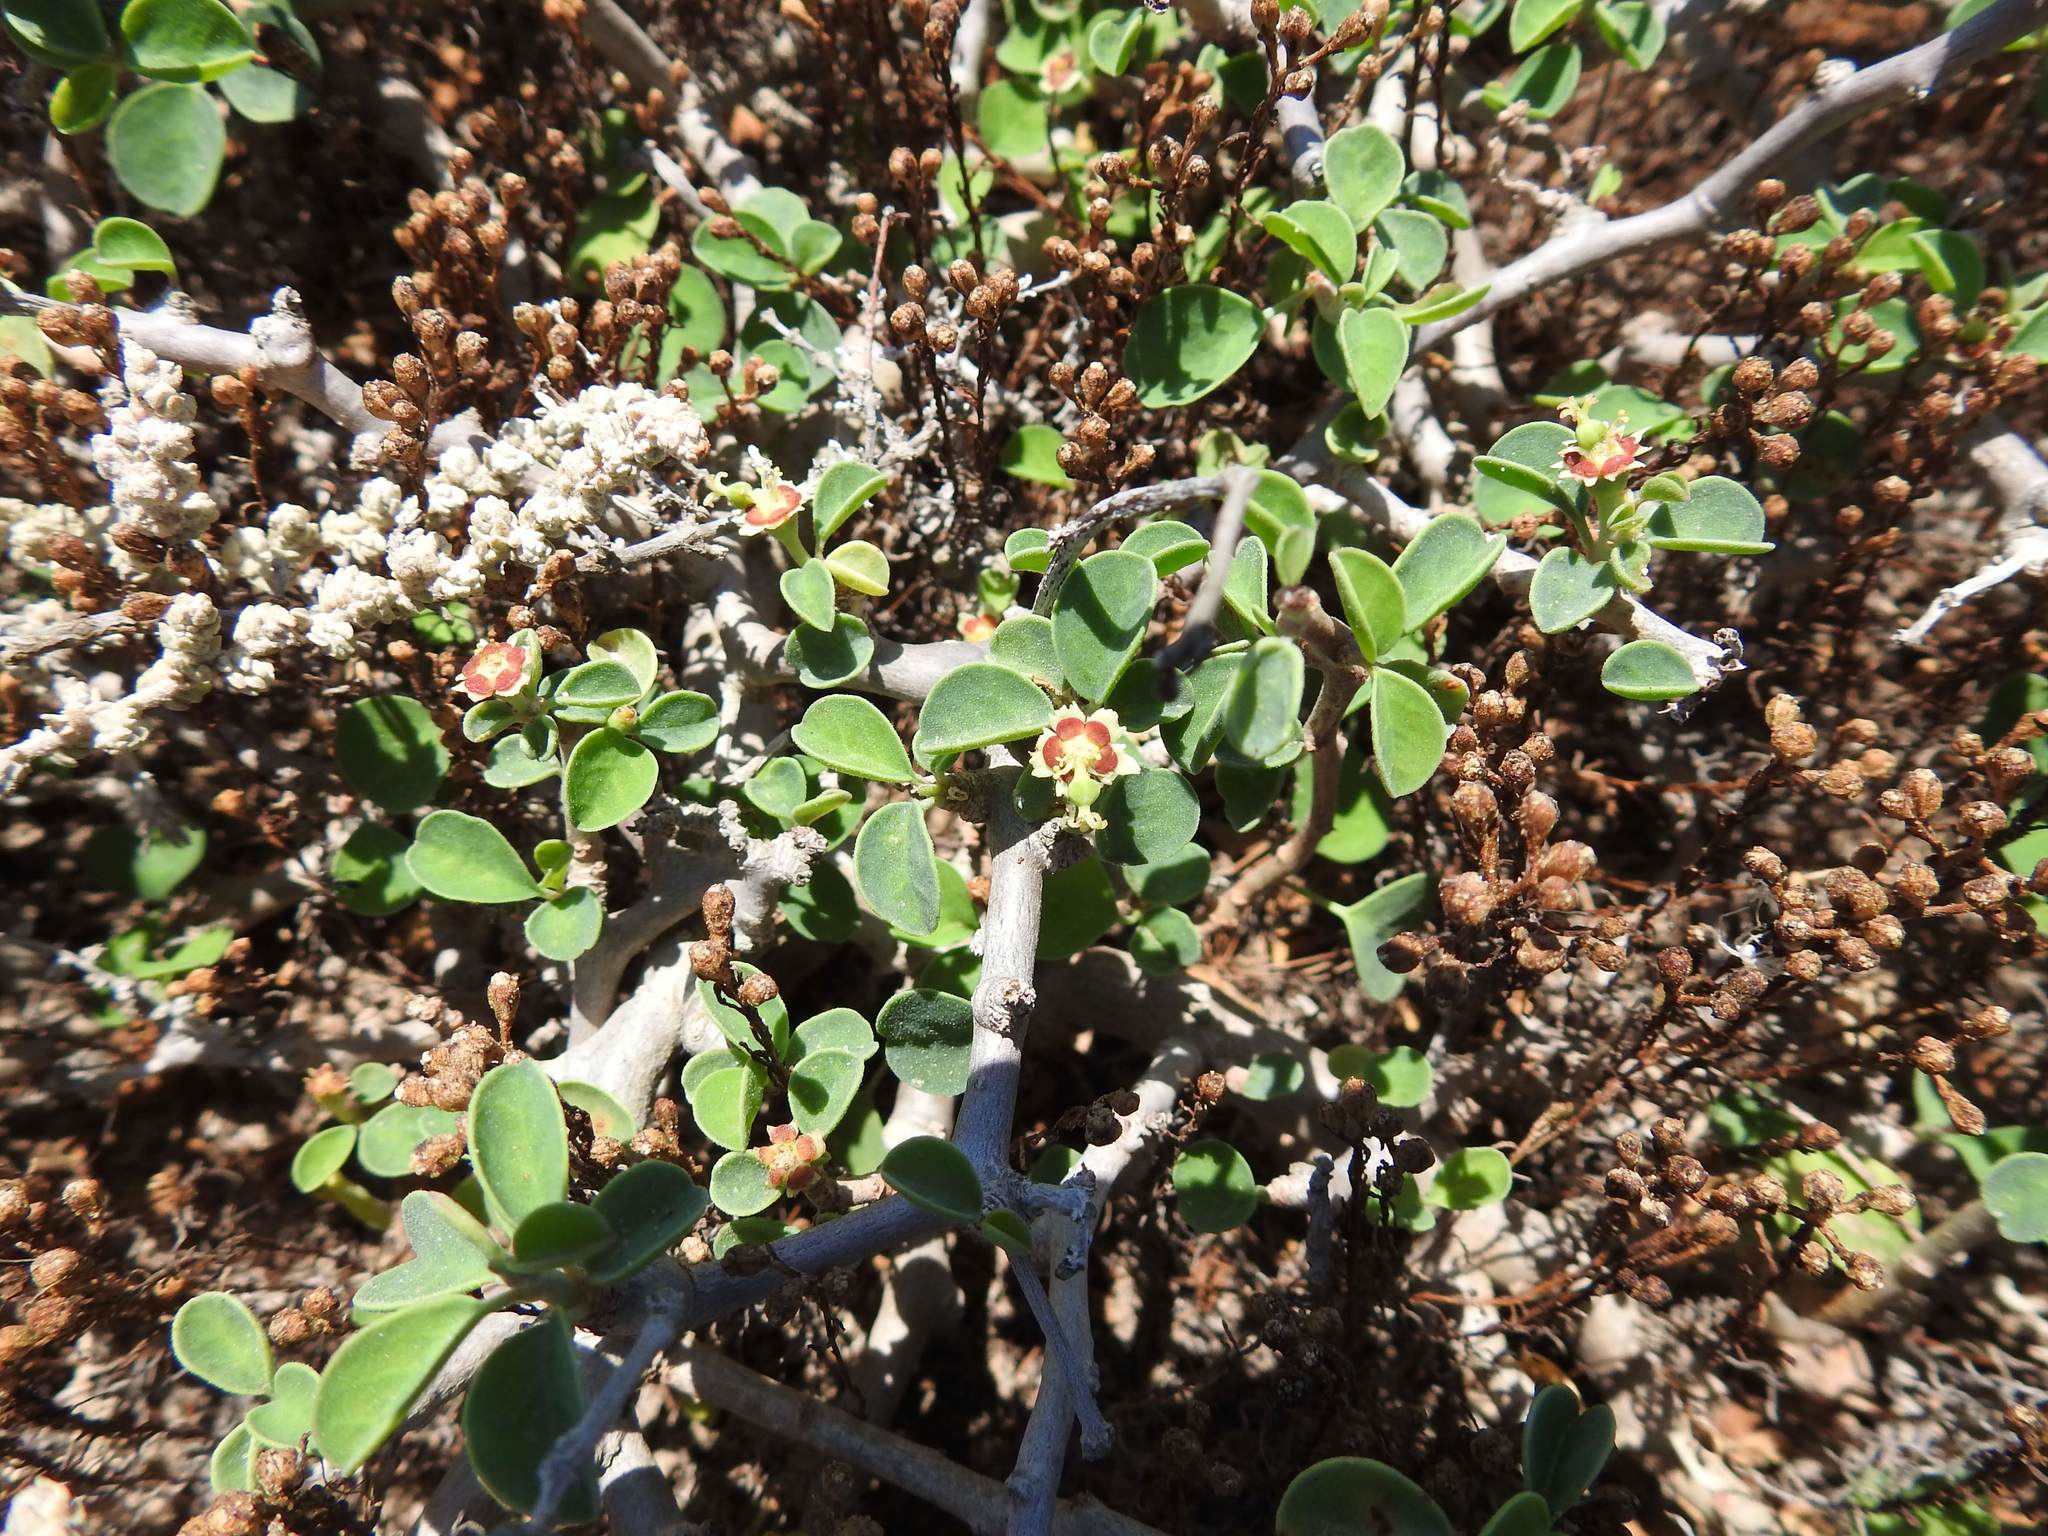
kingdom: Plantae
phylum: Tracheophyta
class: Magnoliopsida
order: Malpighiales
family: Euphorbiaceae
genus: Euphorbia
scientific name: Euphorbia misera
